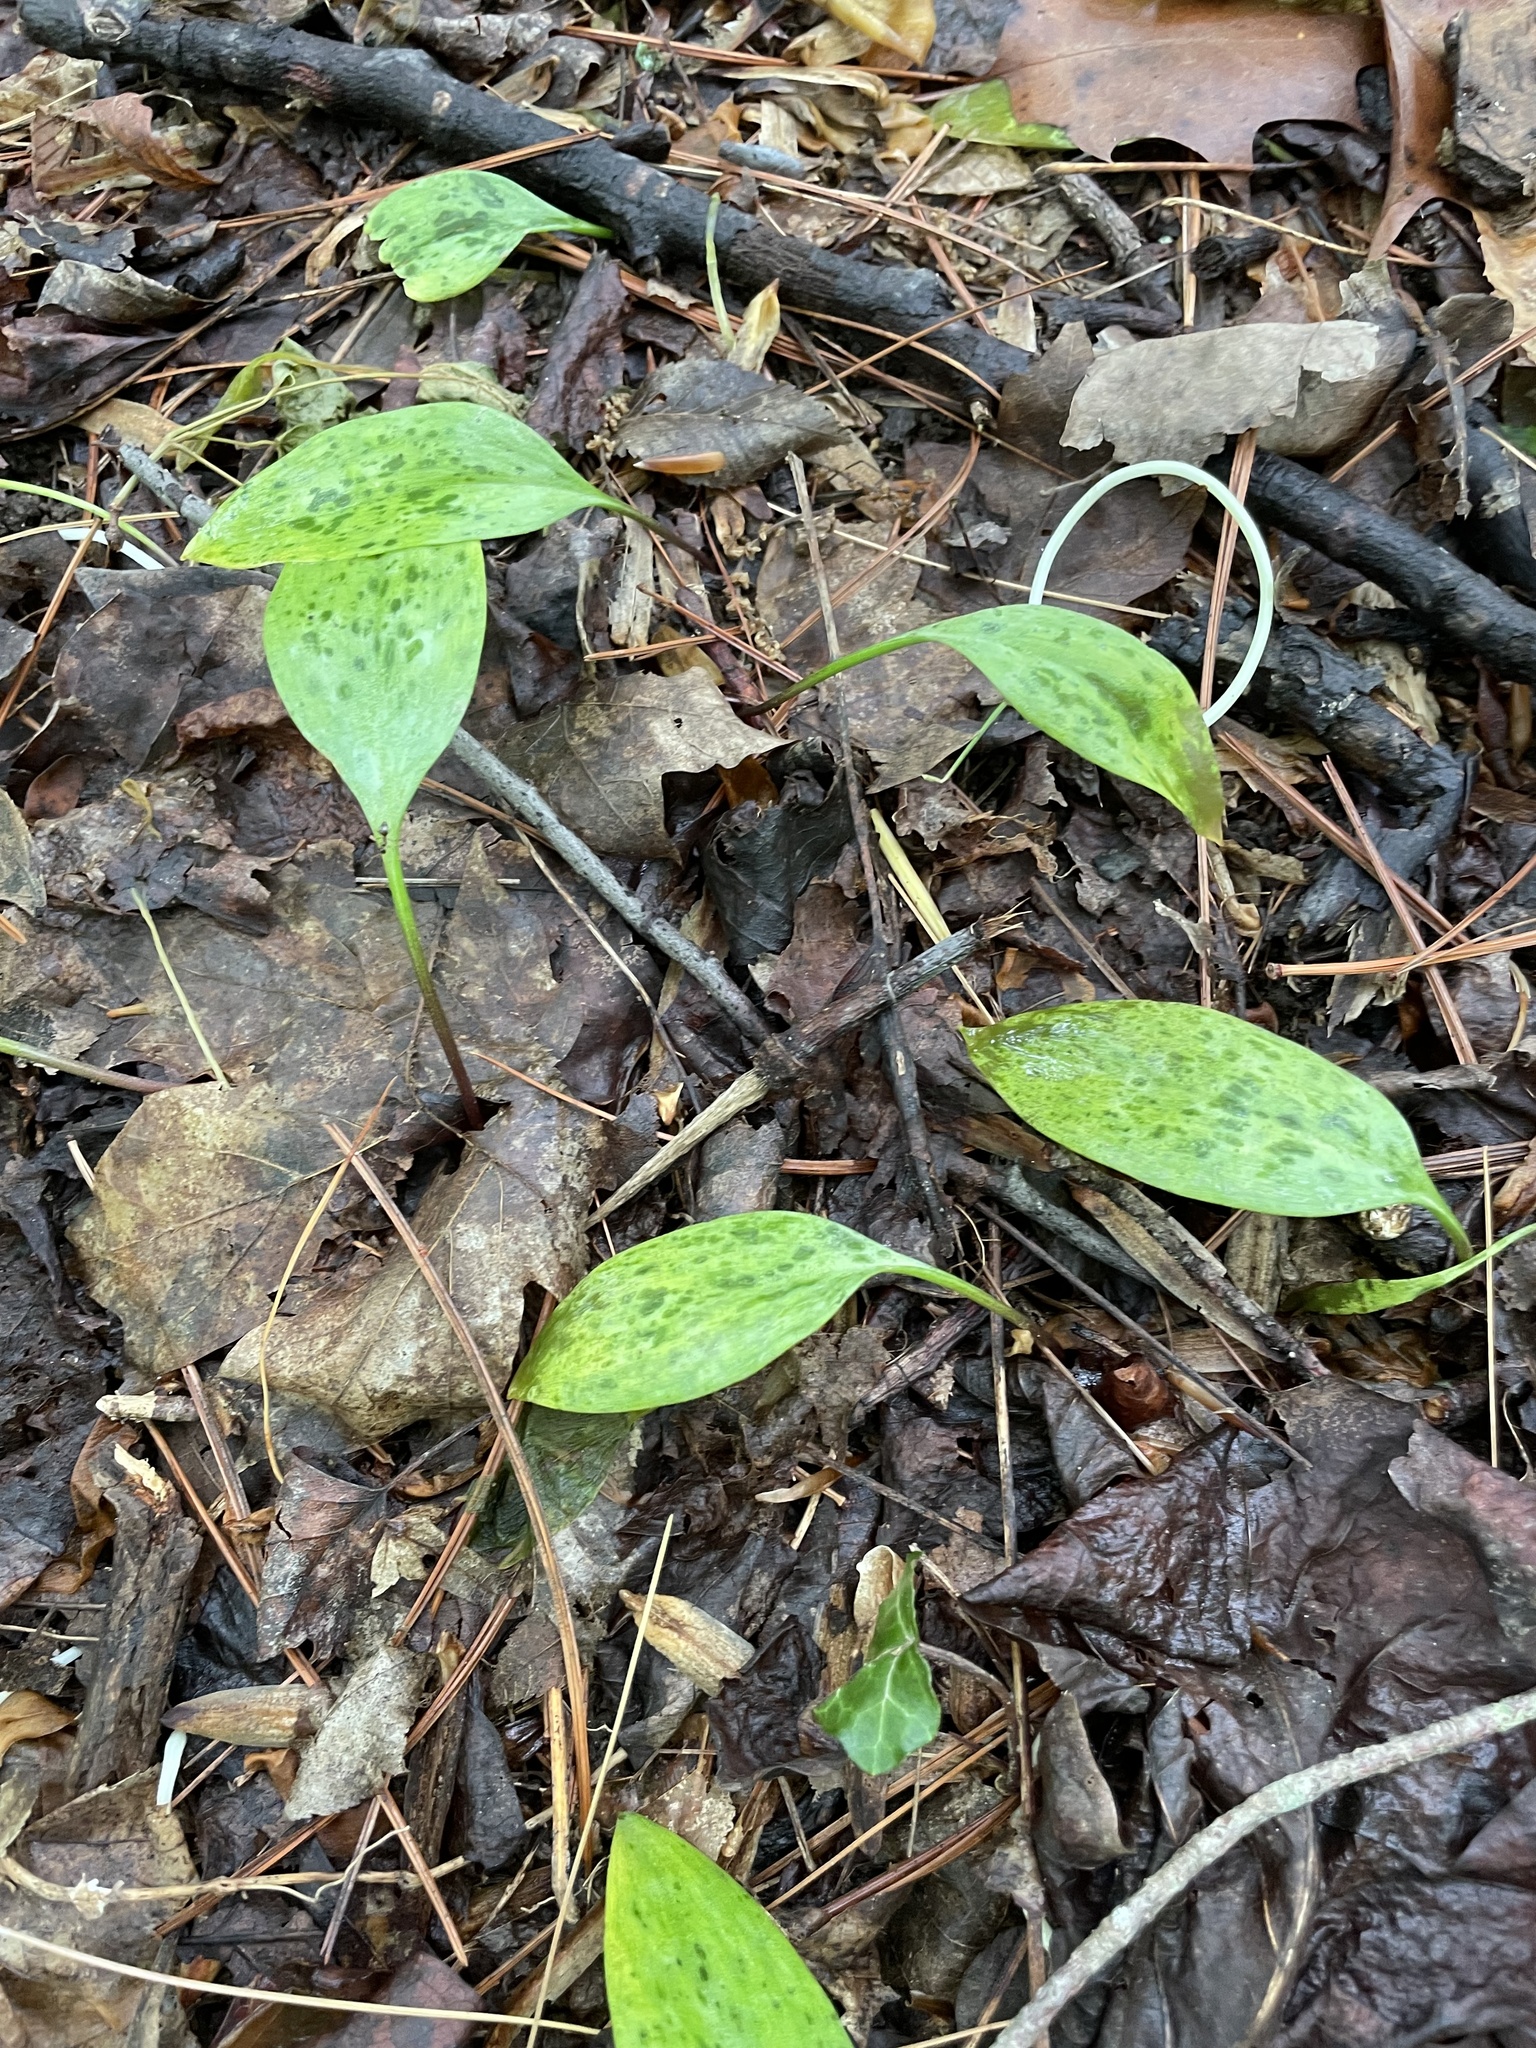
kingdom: Plantae
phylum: Tracheophyta
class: Liliopsida
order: Liliales
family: Liliaceae
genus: Erythronium
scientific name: Erythronium americanum
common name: Yellow adder's-tongue
